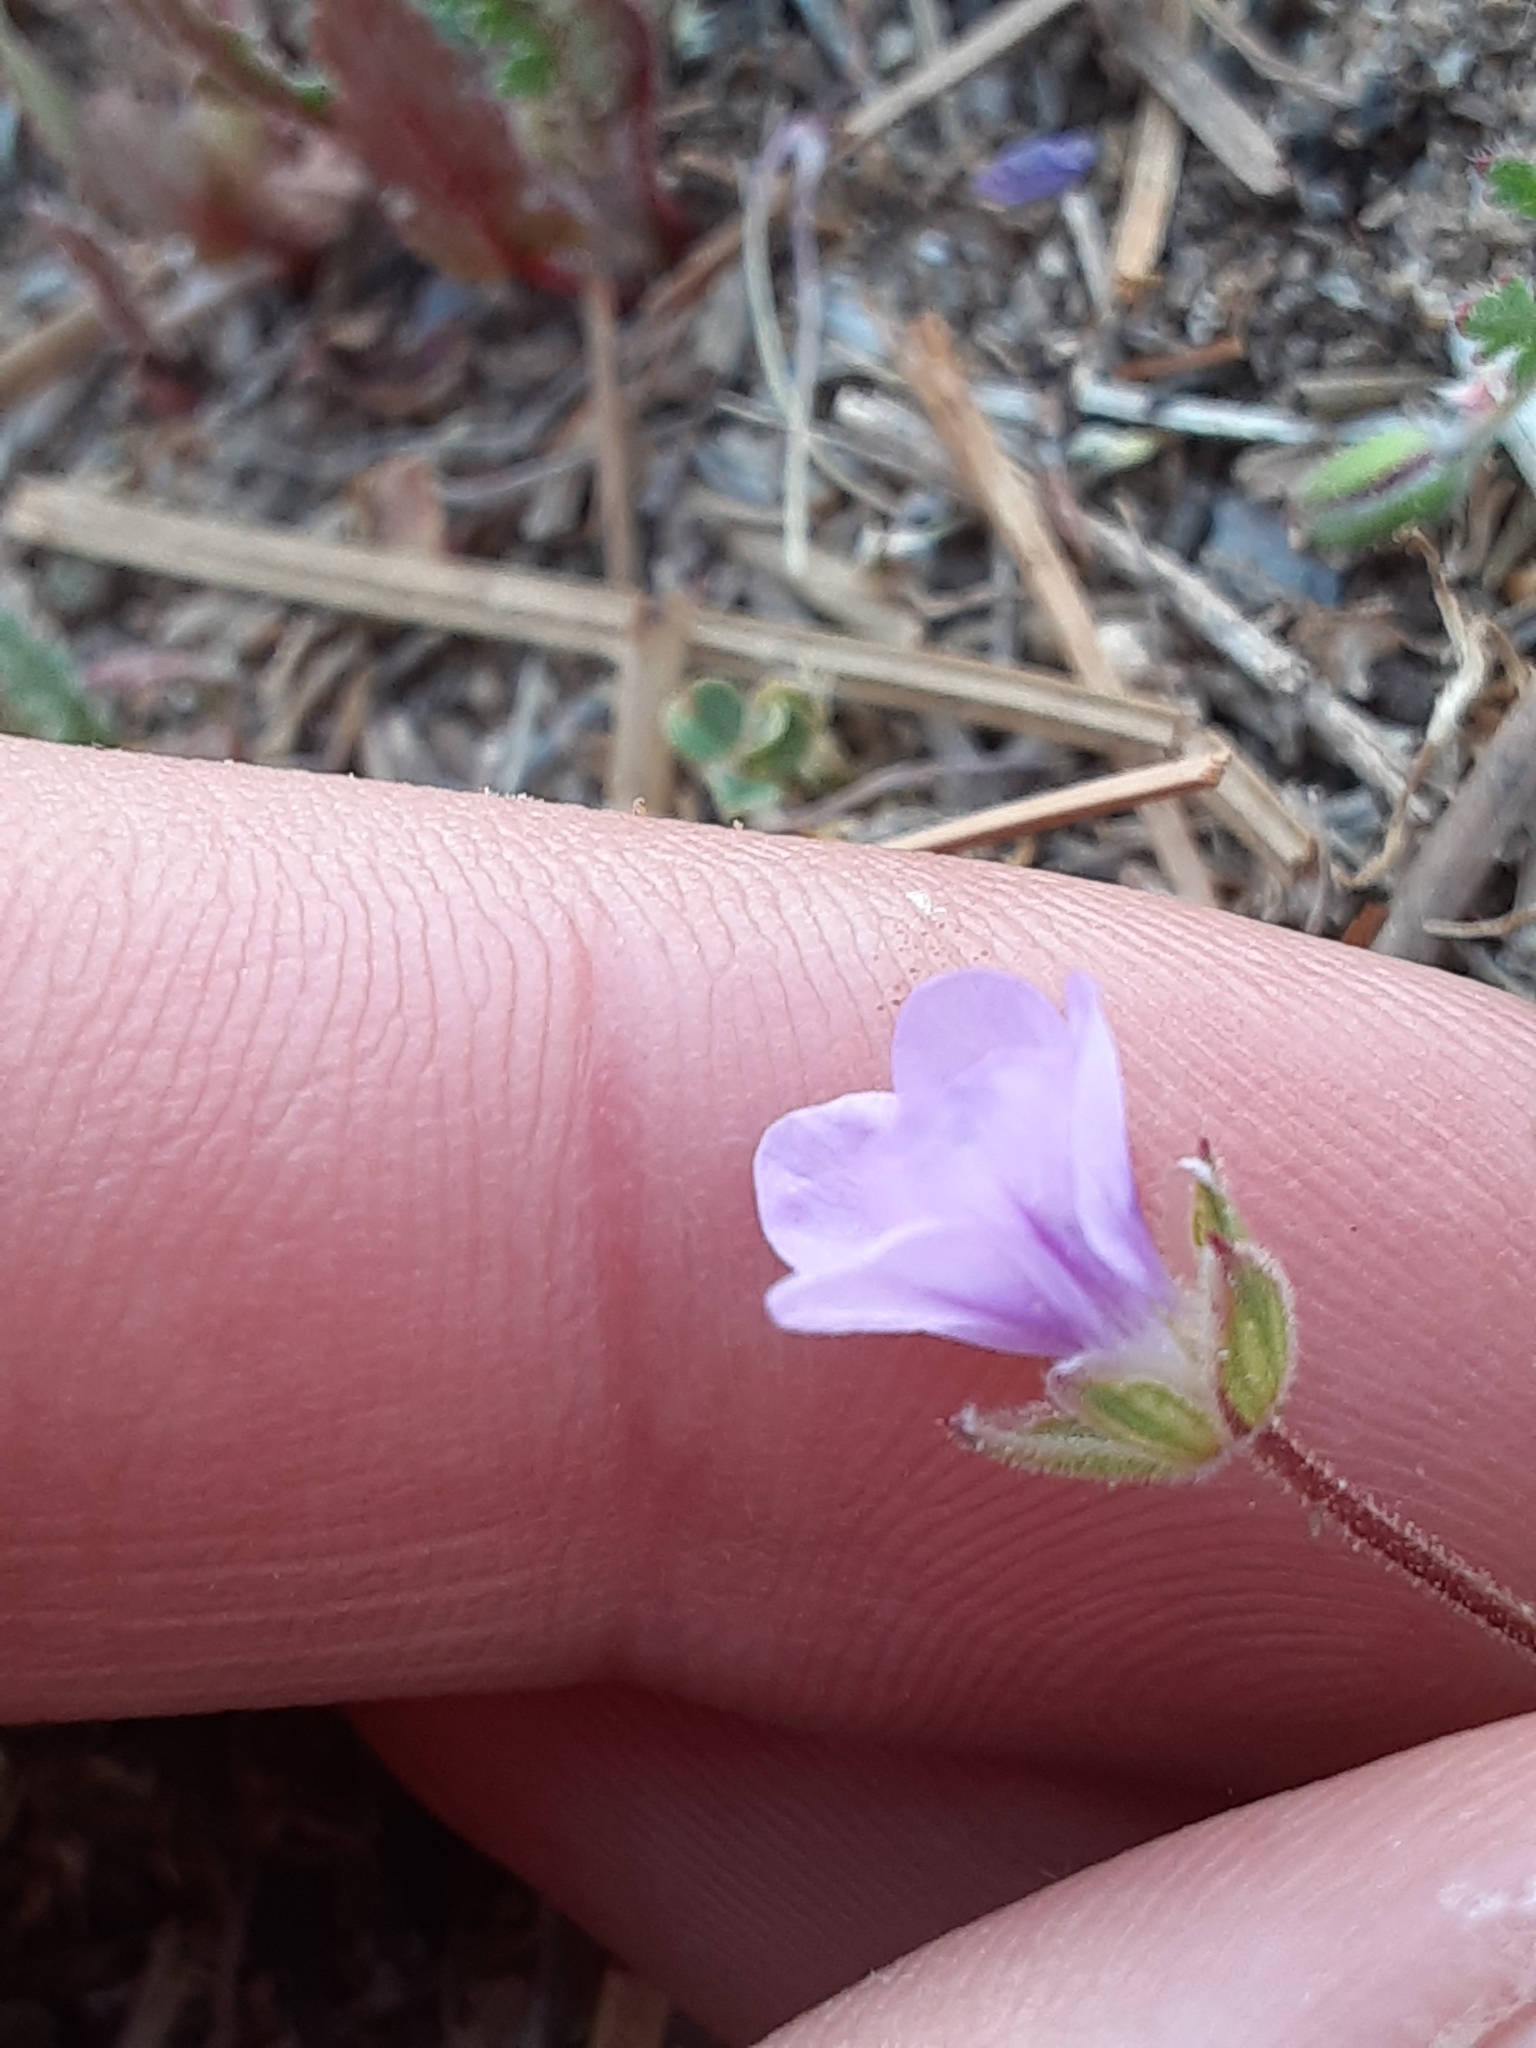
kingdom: Plantae
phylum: Tracheophyta
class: Magnoliopsida
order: Geraniales
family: Geraniaceae
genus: Erodium
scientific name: Erodium botrys
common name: Mediterranean stork's-bill
